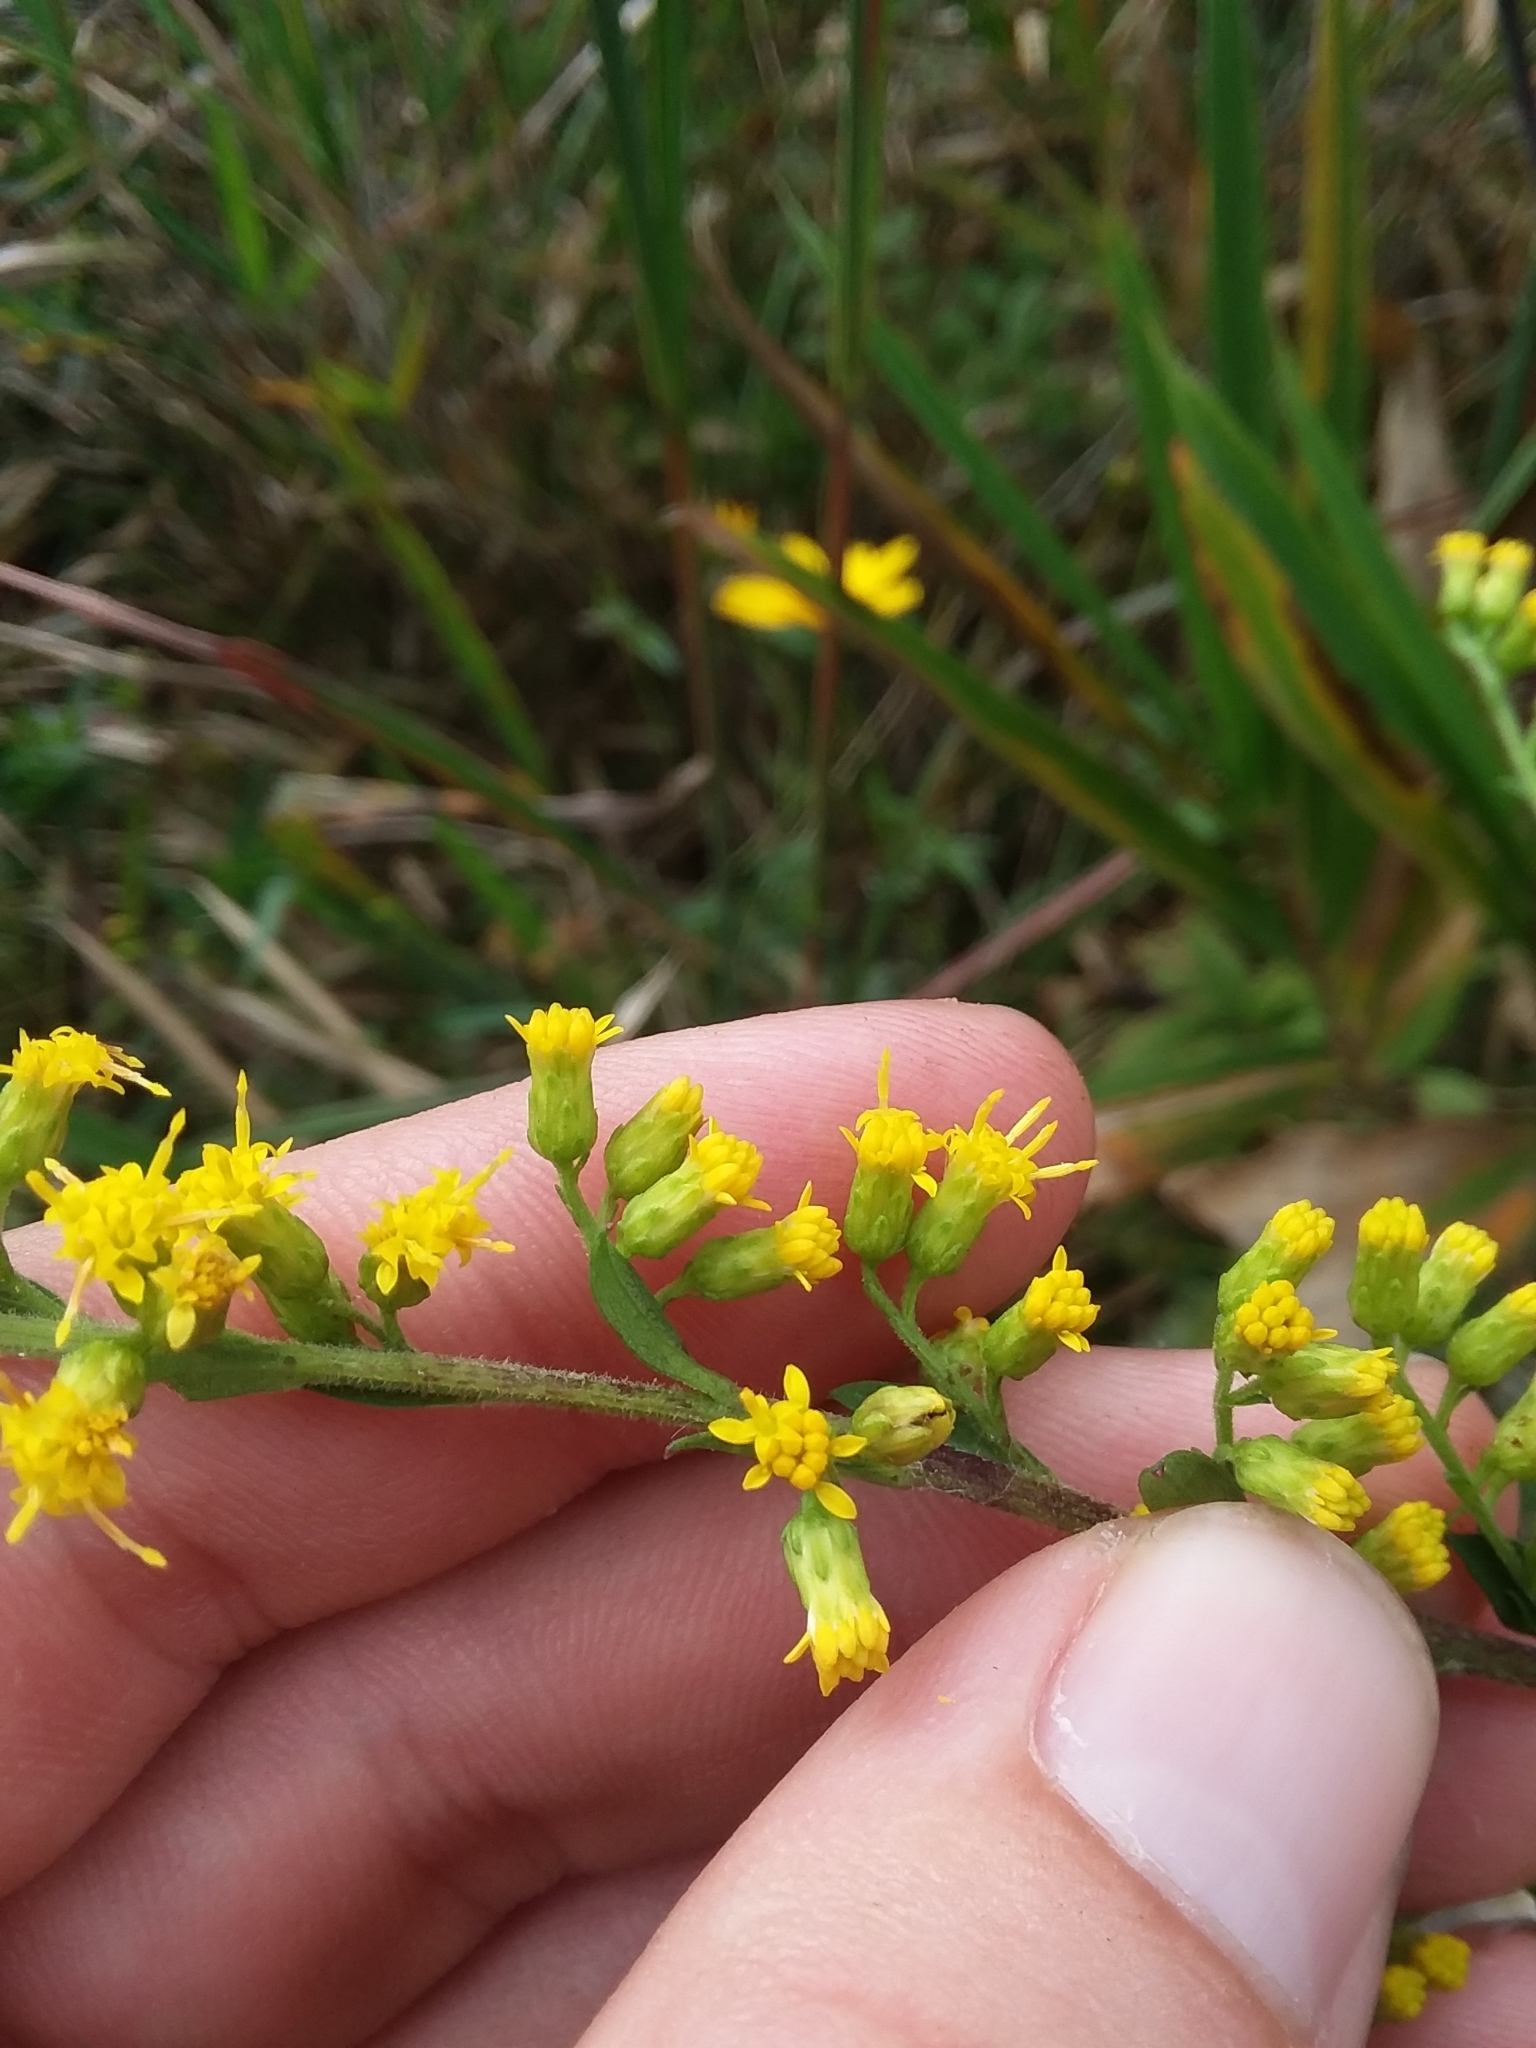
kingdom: Plantae
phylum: Tracheophyta
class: Magnoliopsida
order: Asterales
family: Asteraceae
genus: Solidago
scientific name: Solidago patula
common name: Rough-leaf goldenrod
